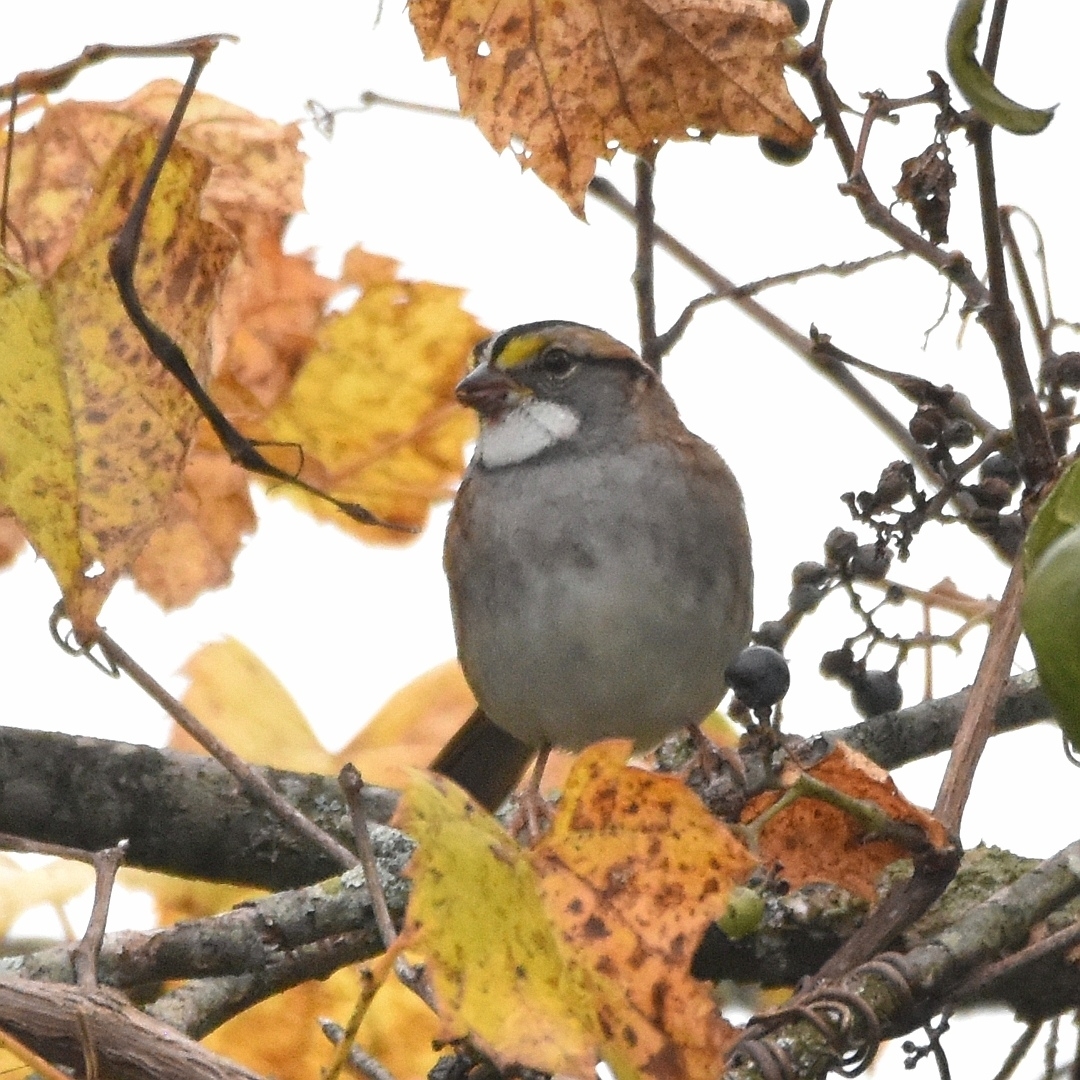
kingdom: Animalia
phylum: Chordata
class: Aves
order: Passeriformes
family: Passerellidae
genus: Zonotrichia
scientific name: Zonotrichia albicollis
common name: White-throated sparrow
